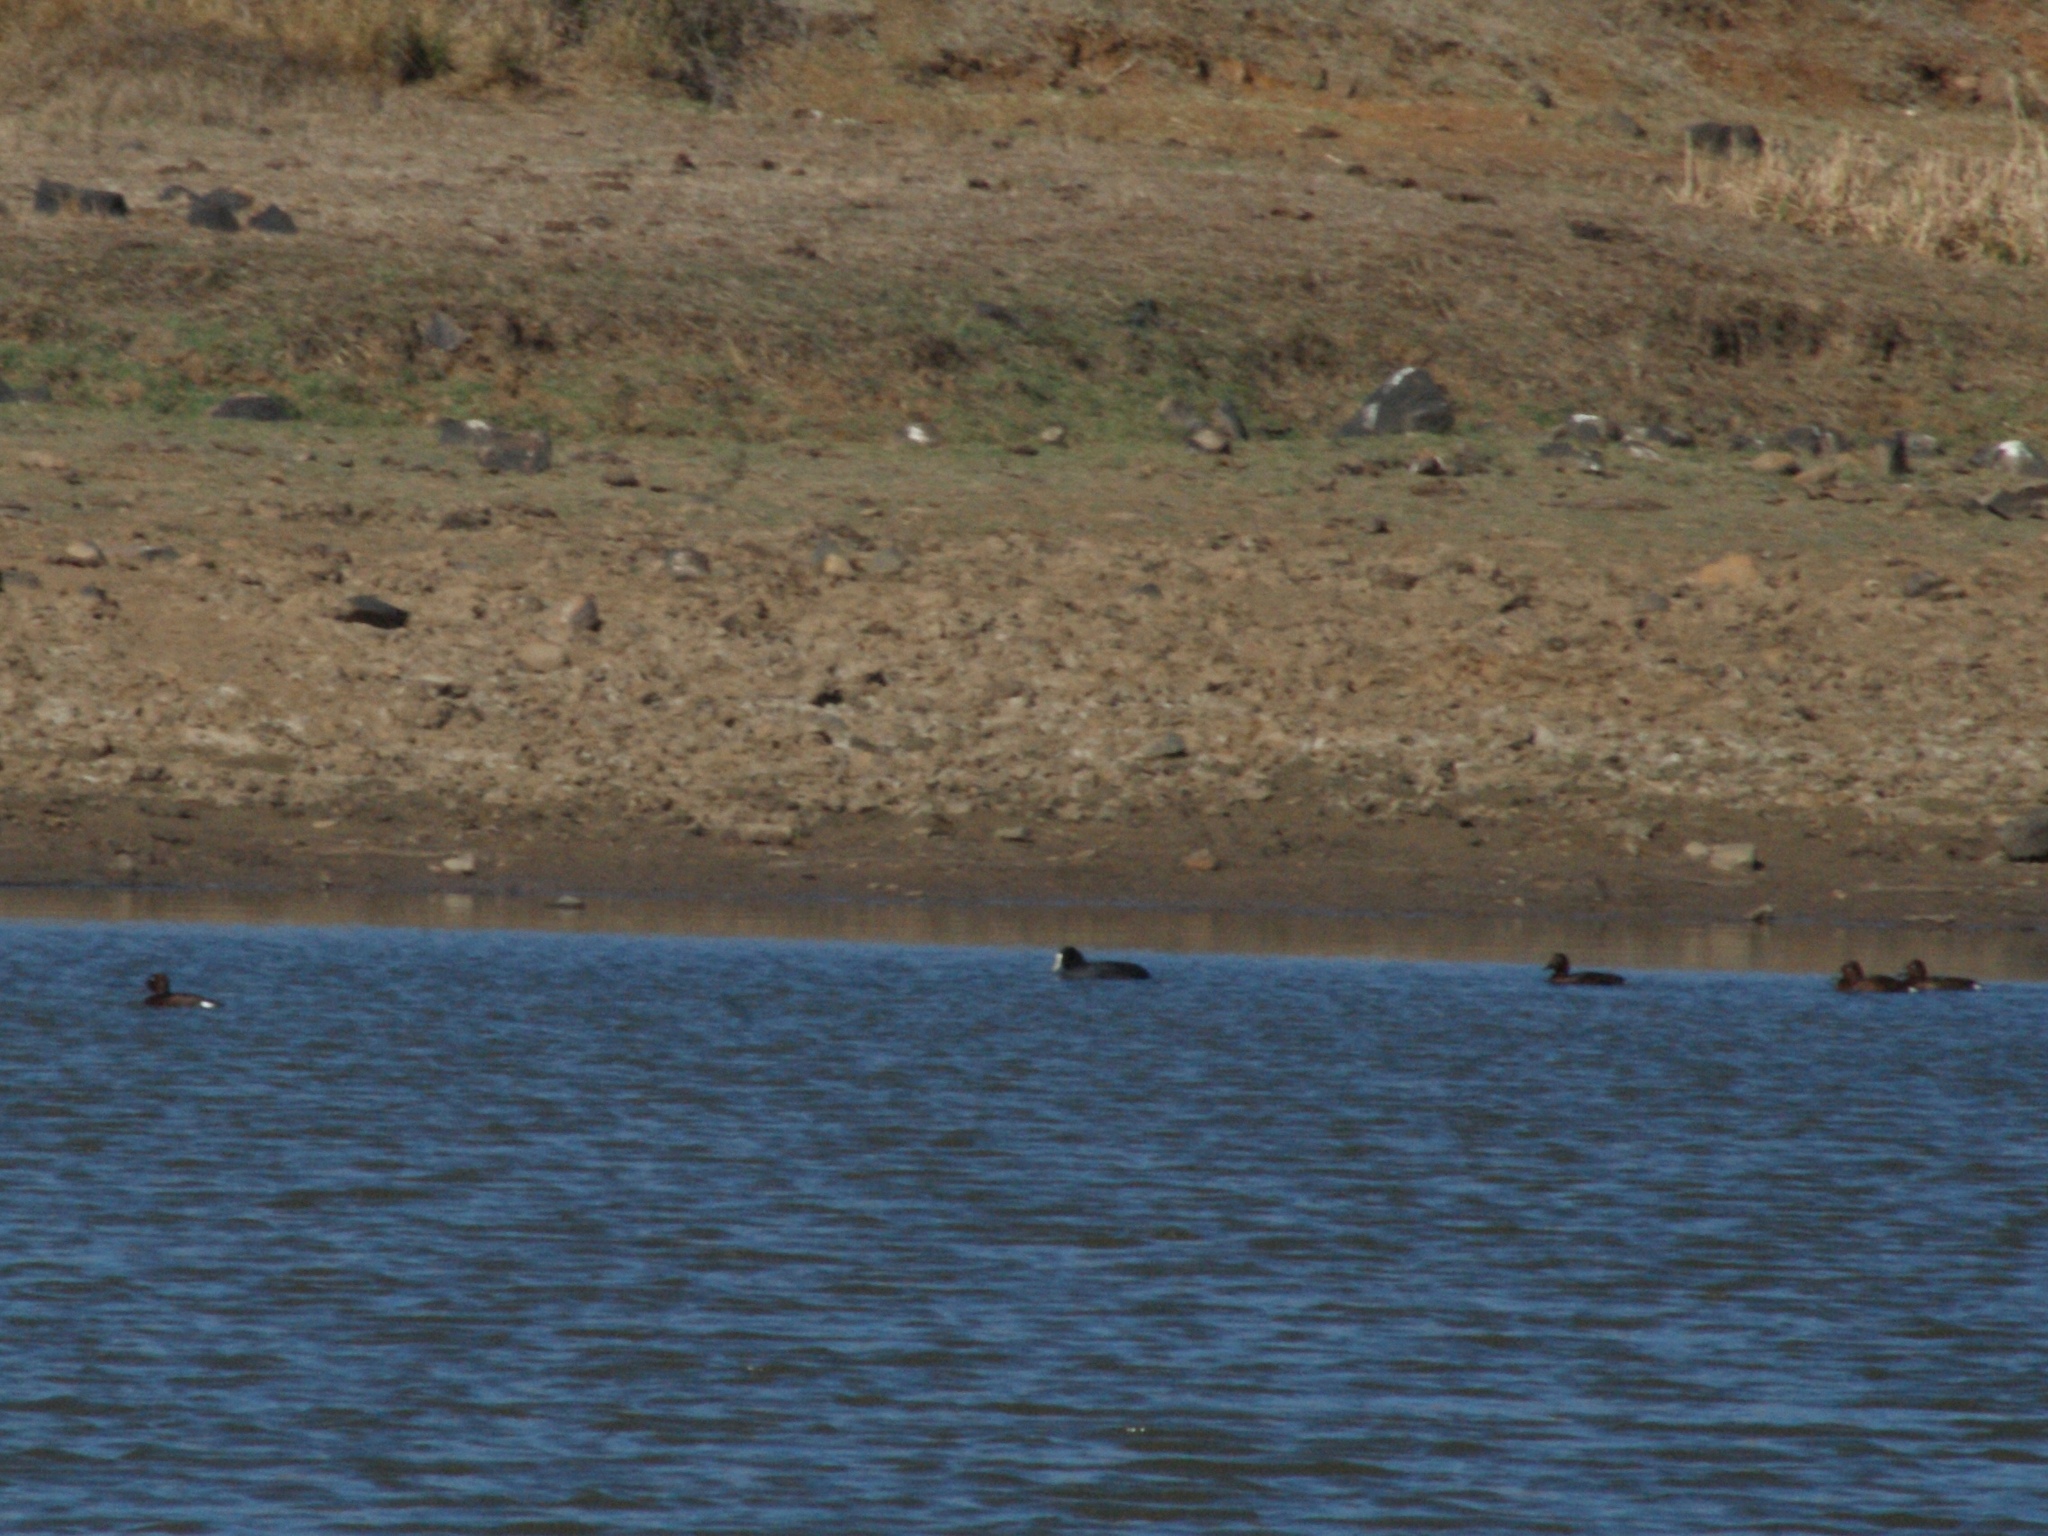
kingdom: Animalia
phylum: Chordata
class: Aves
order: Anseriformes
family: Anatidae
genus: Aythya
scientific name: Aythya nyroca
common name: Ferruginous duck
